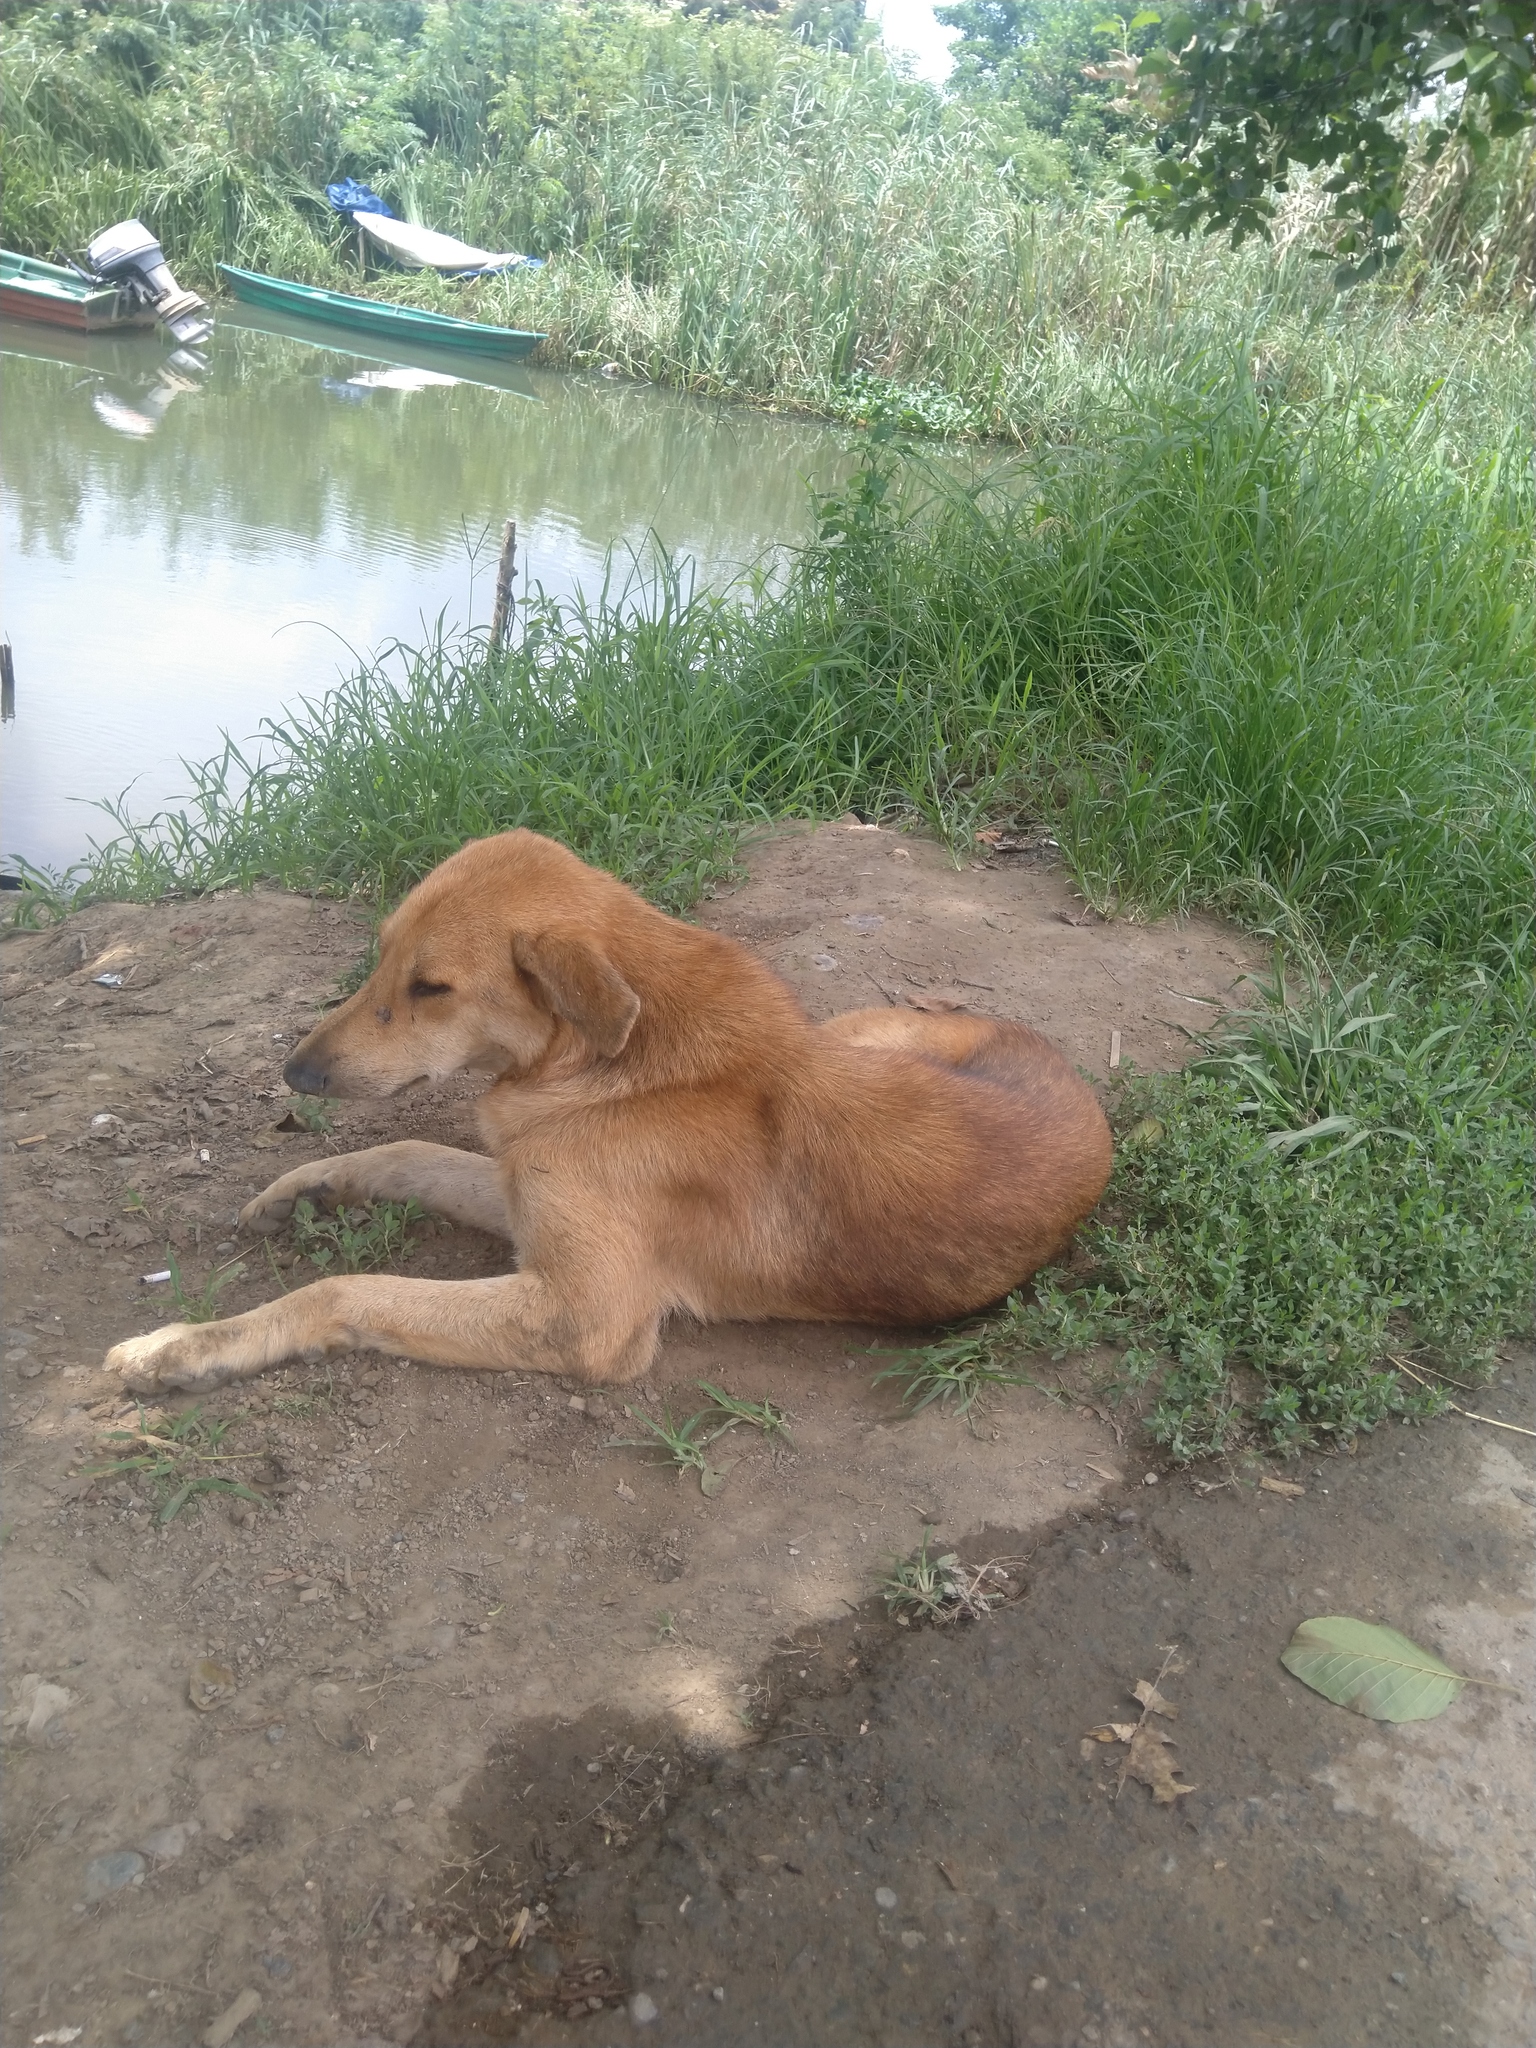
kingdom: Animalia
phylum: Chordata
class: Mammalia
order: Carnivora
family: Canidae
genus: Canis
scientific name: Canis lupus
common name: Gray wolf
